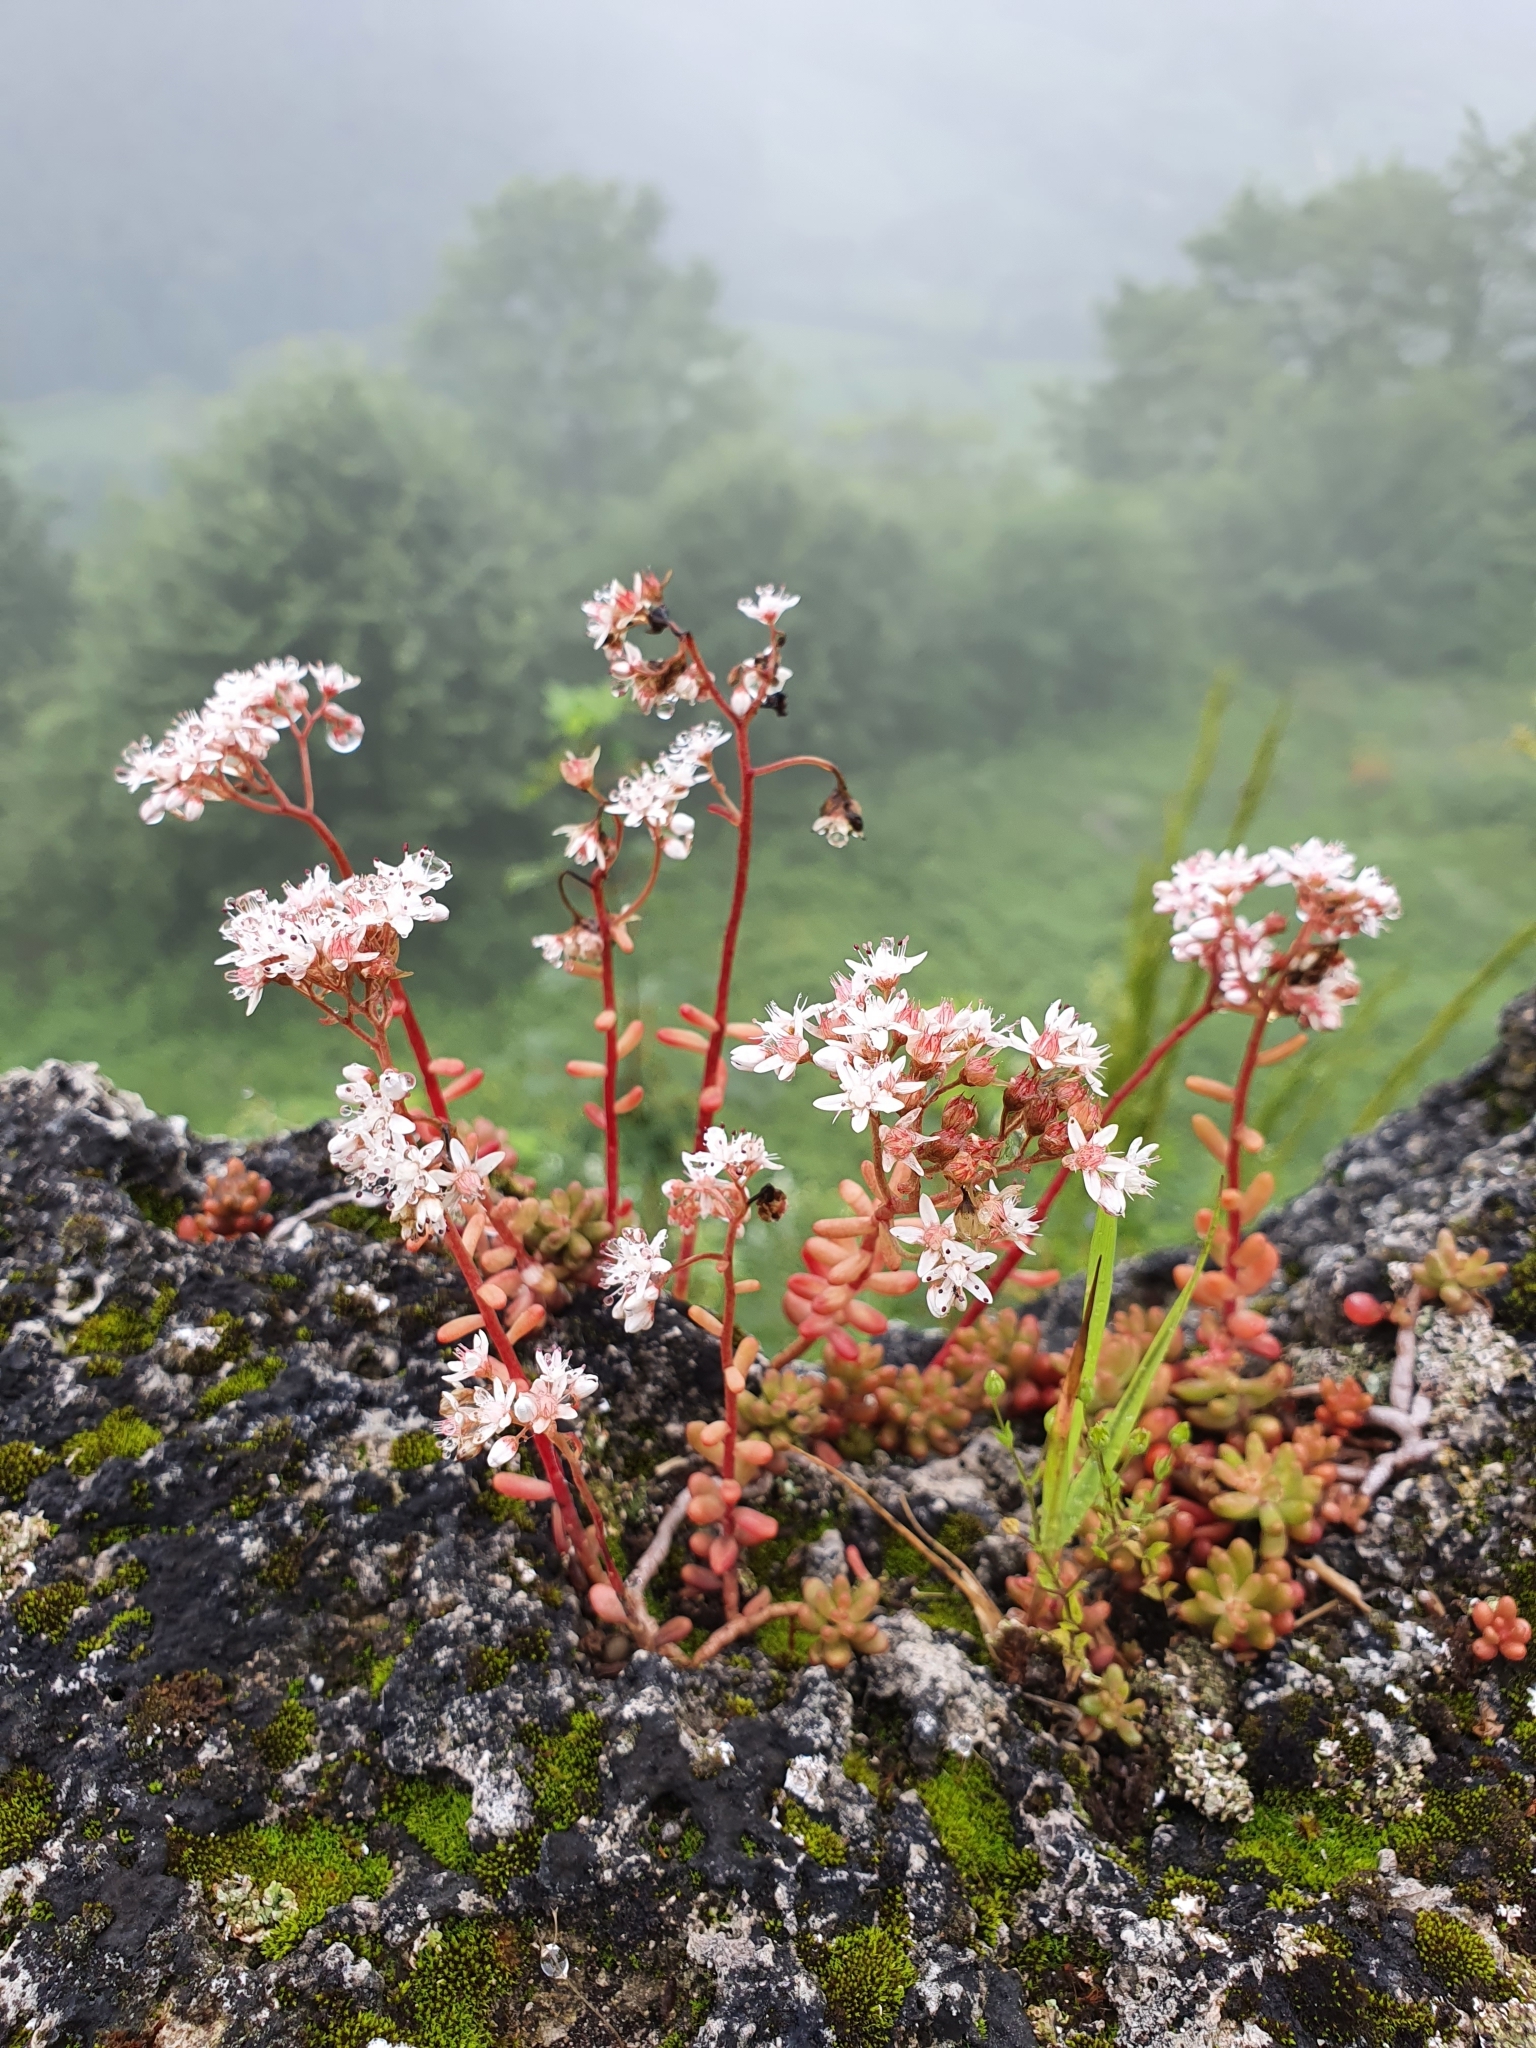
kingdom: Plantae
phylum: Tracheophyta
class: Magnoliopsida
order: Saxifragales
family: Crassulaceae
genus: Sedum
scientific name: Sedum album
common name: White stonecrop
